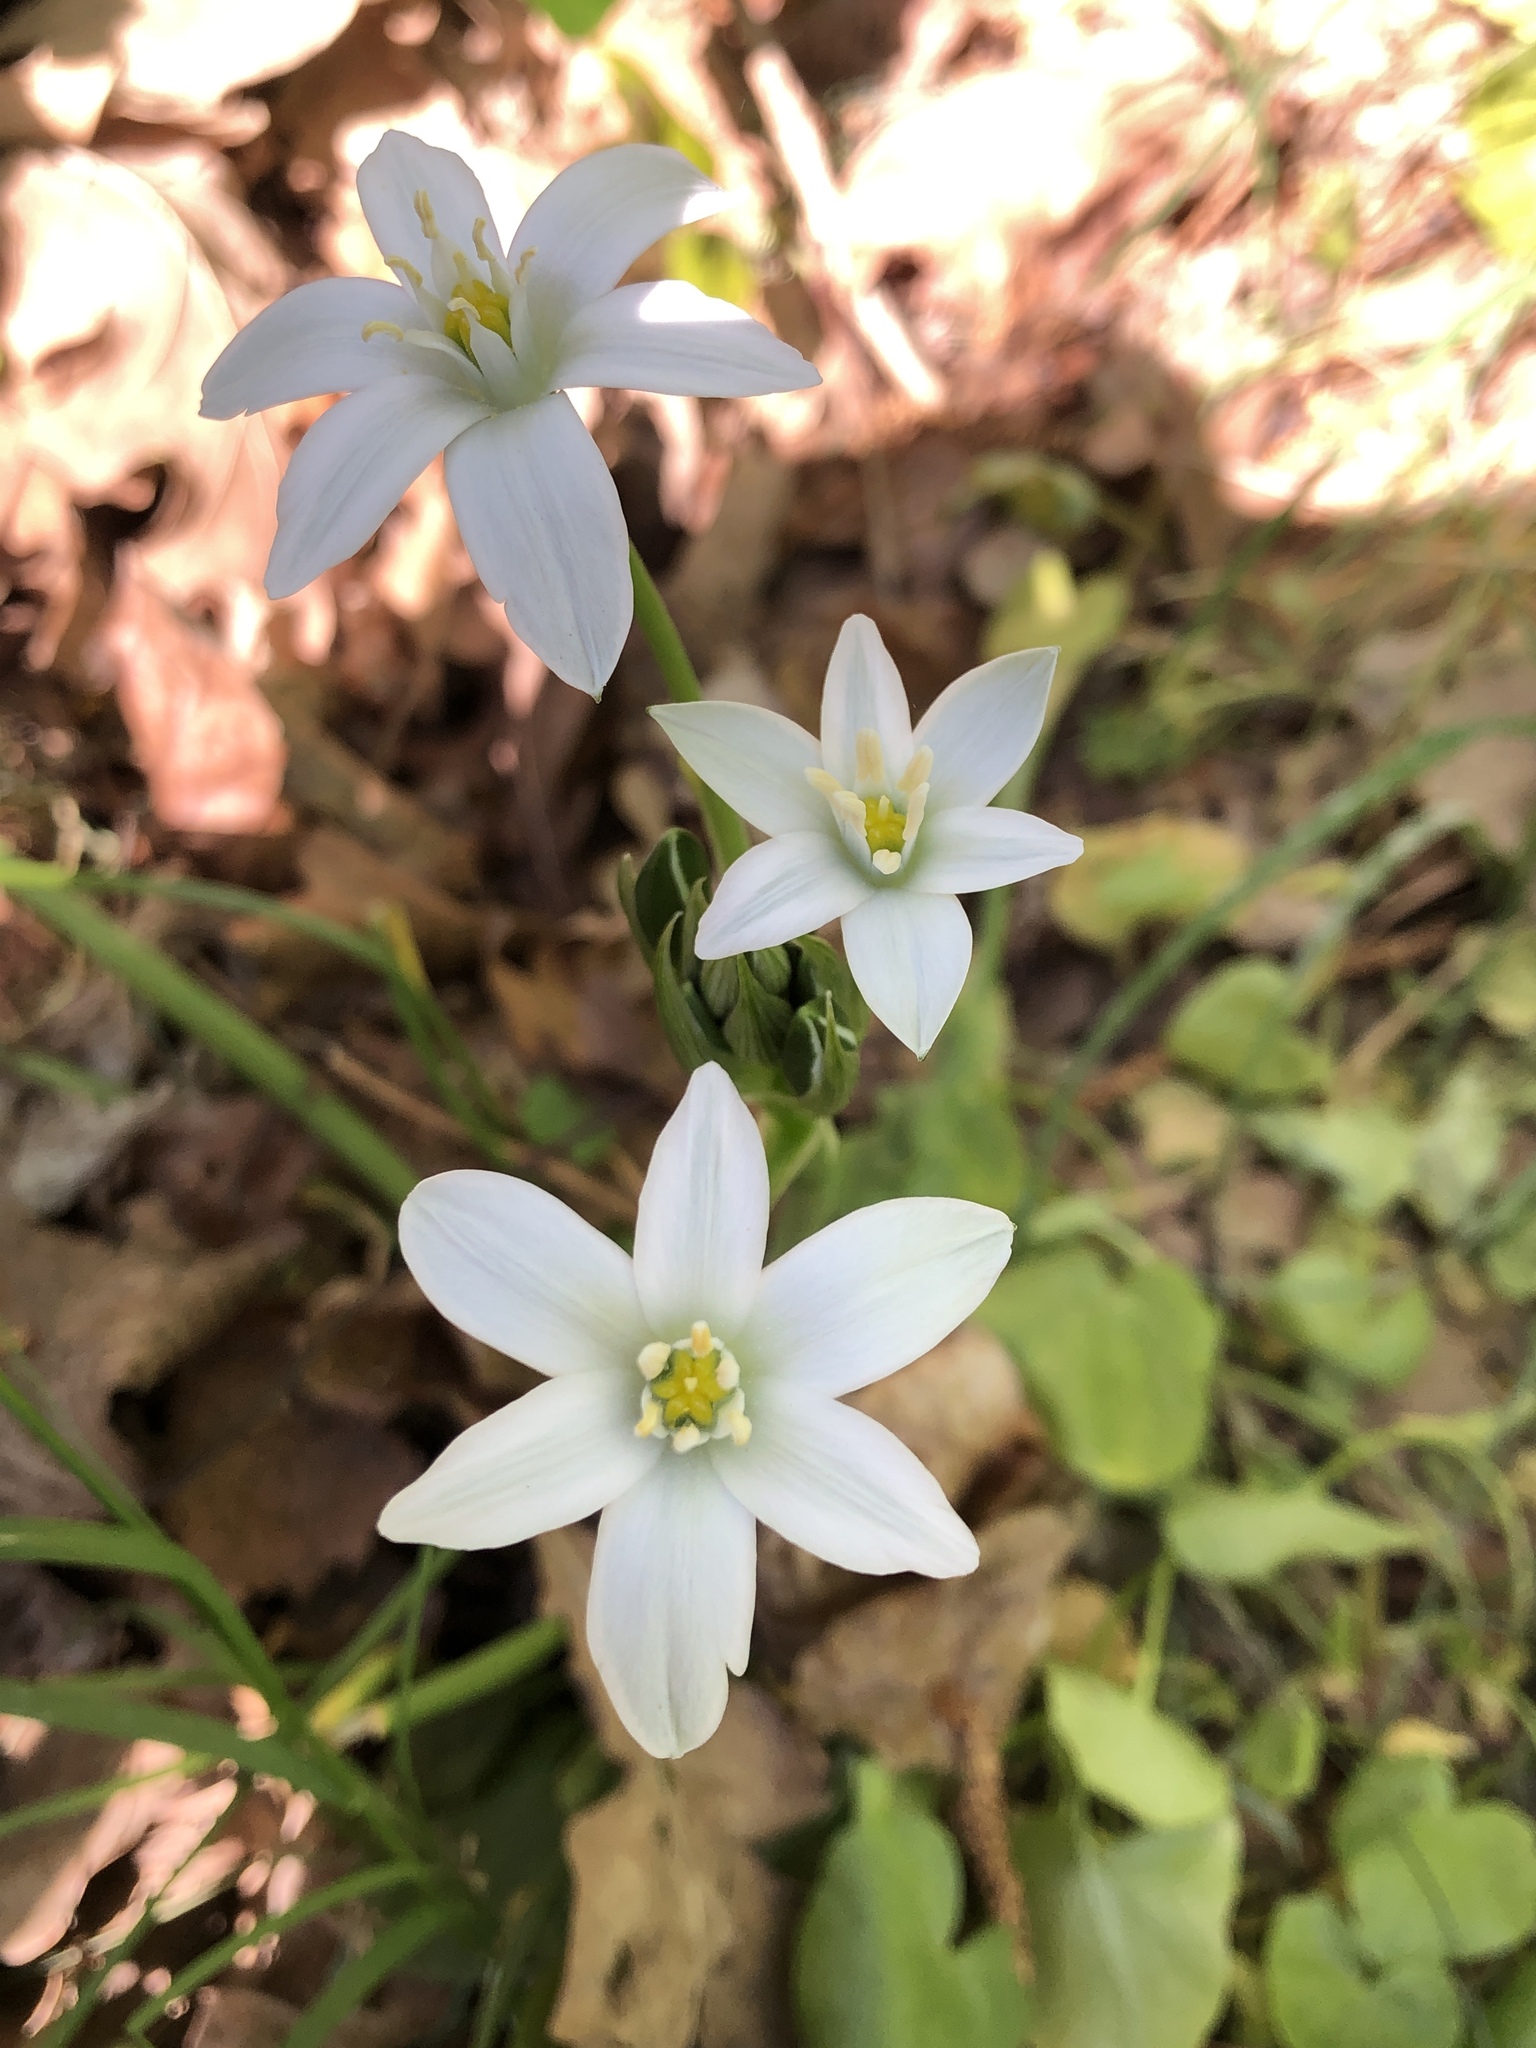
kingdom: Plantae
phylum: Tracheophyta
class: Liliopsida
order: Asparagales
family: Asparagaceae
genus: Ornithogalum
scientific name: Ornithogalum umbellatum
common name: Garden star-of-bethlehem
